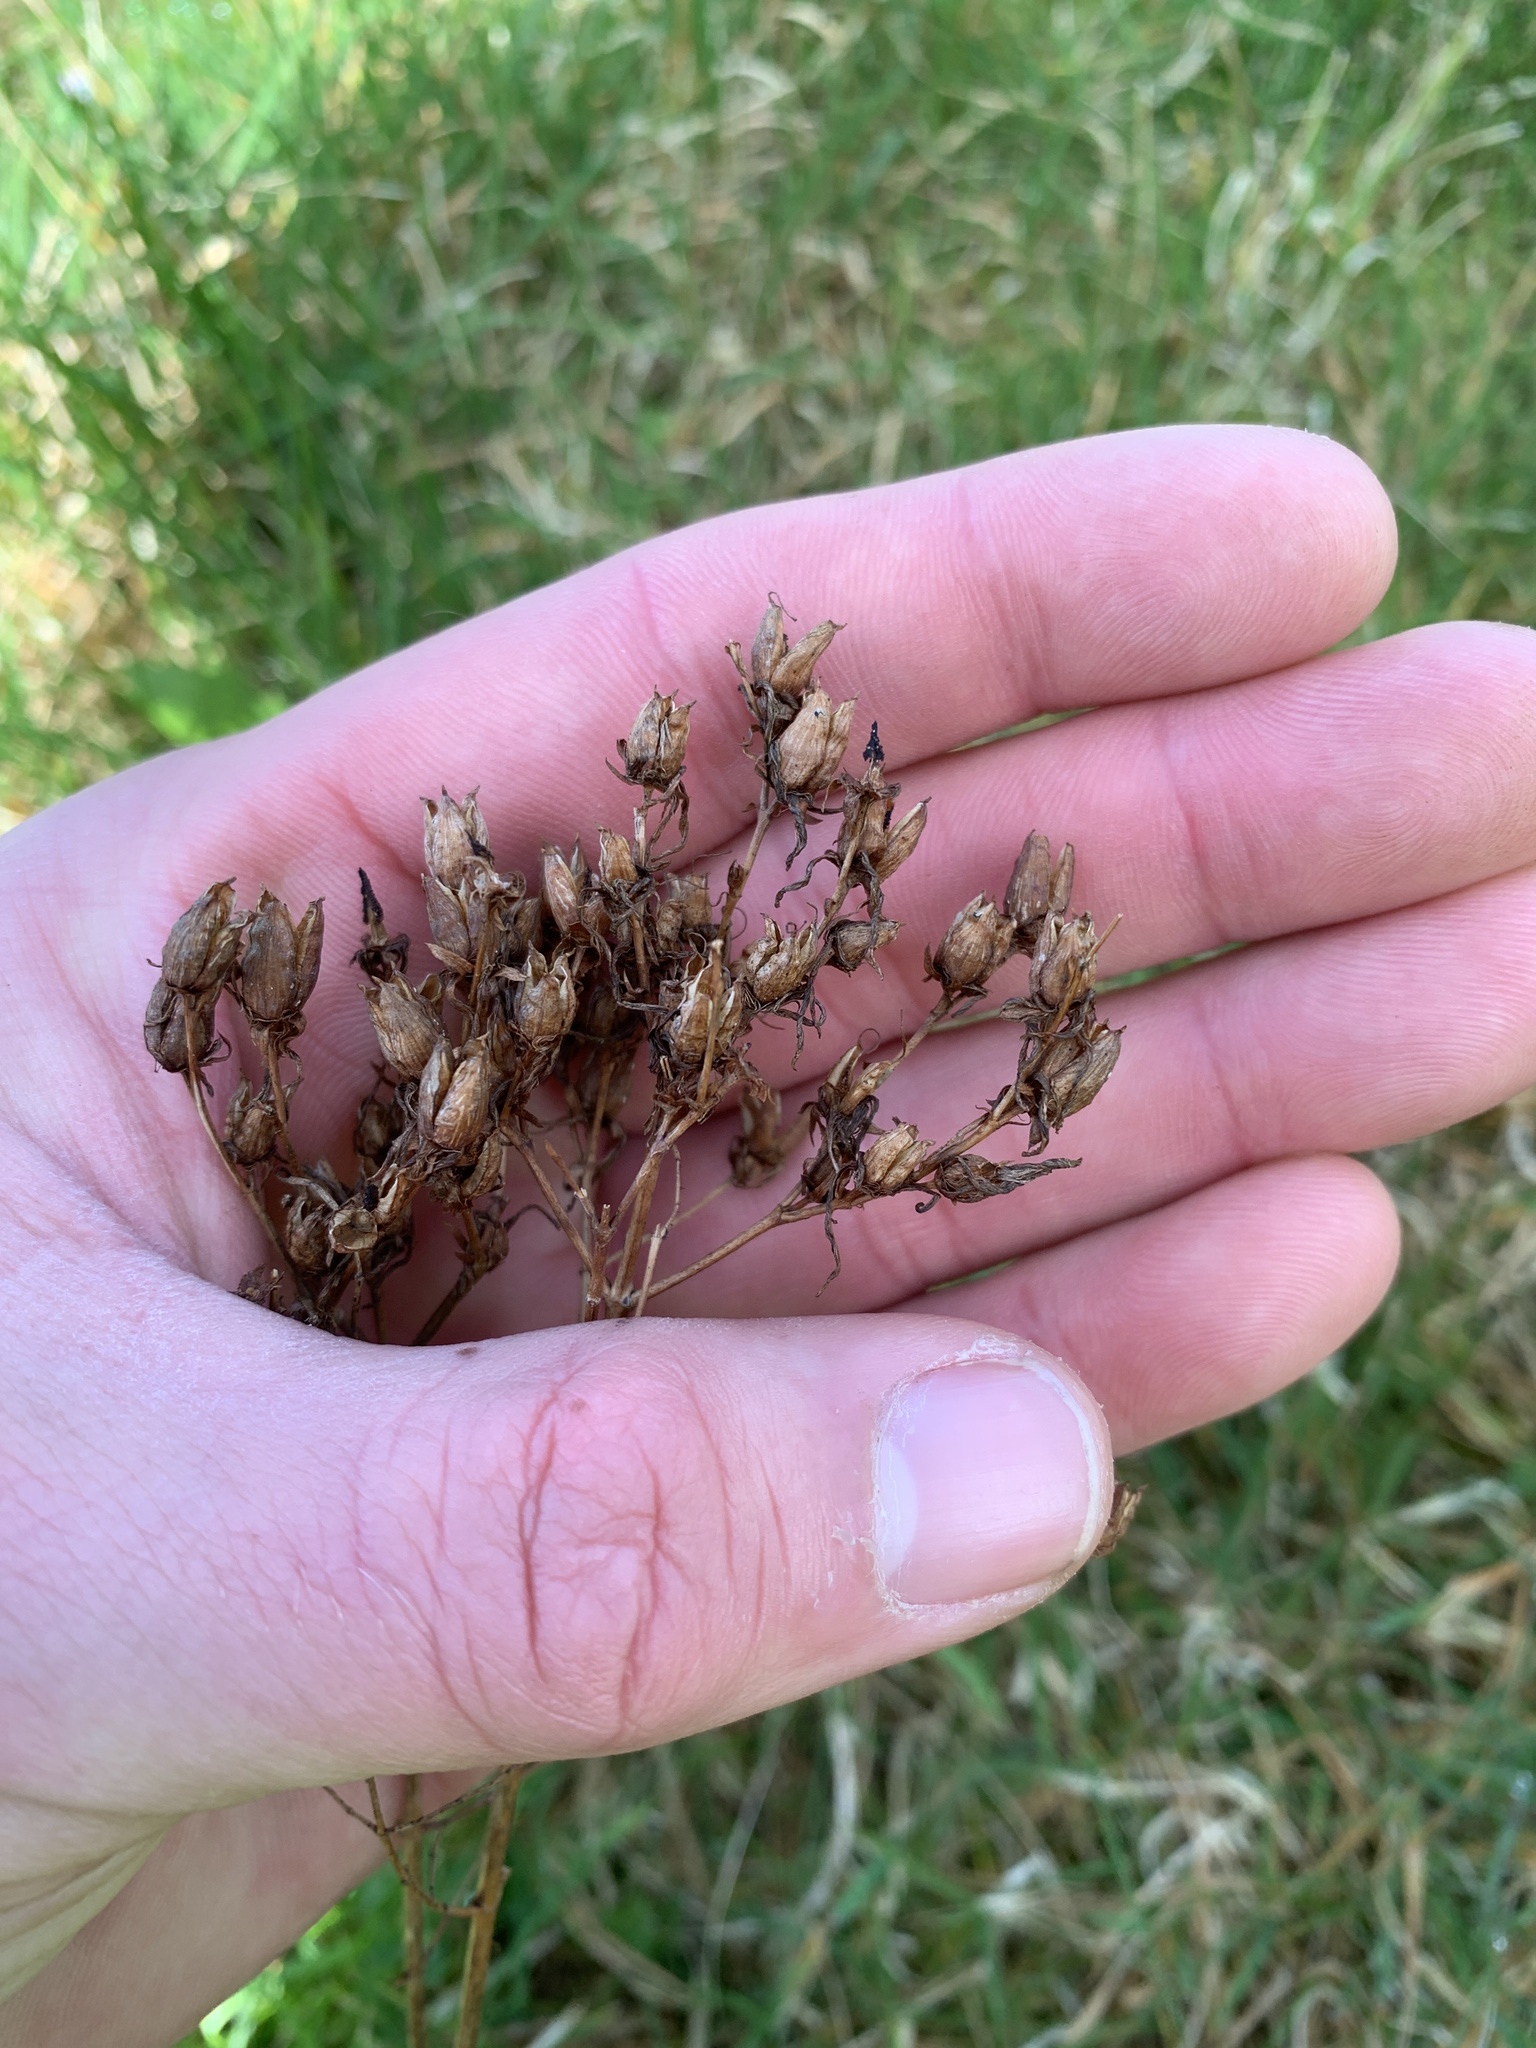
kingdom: Plantae
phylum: Tracheophyta
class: Magnoliopsida
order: Malpighiales
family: Hypericaceae
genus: Hypericum
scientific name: Hypericum tetrapterum
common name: Square-stalked st. john's-wort
